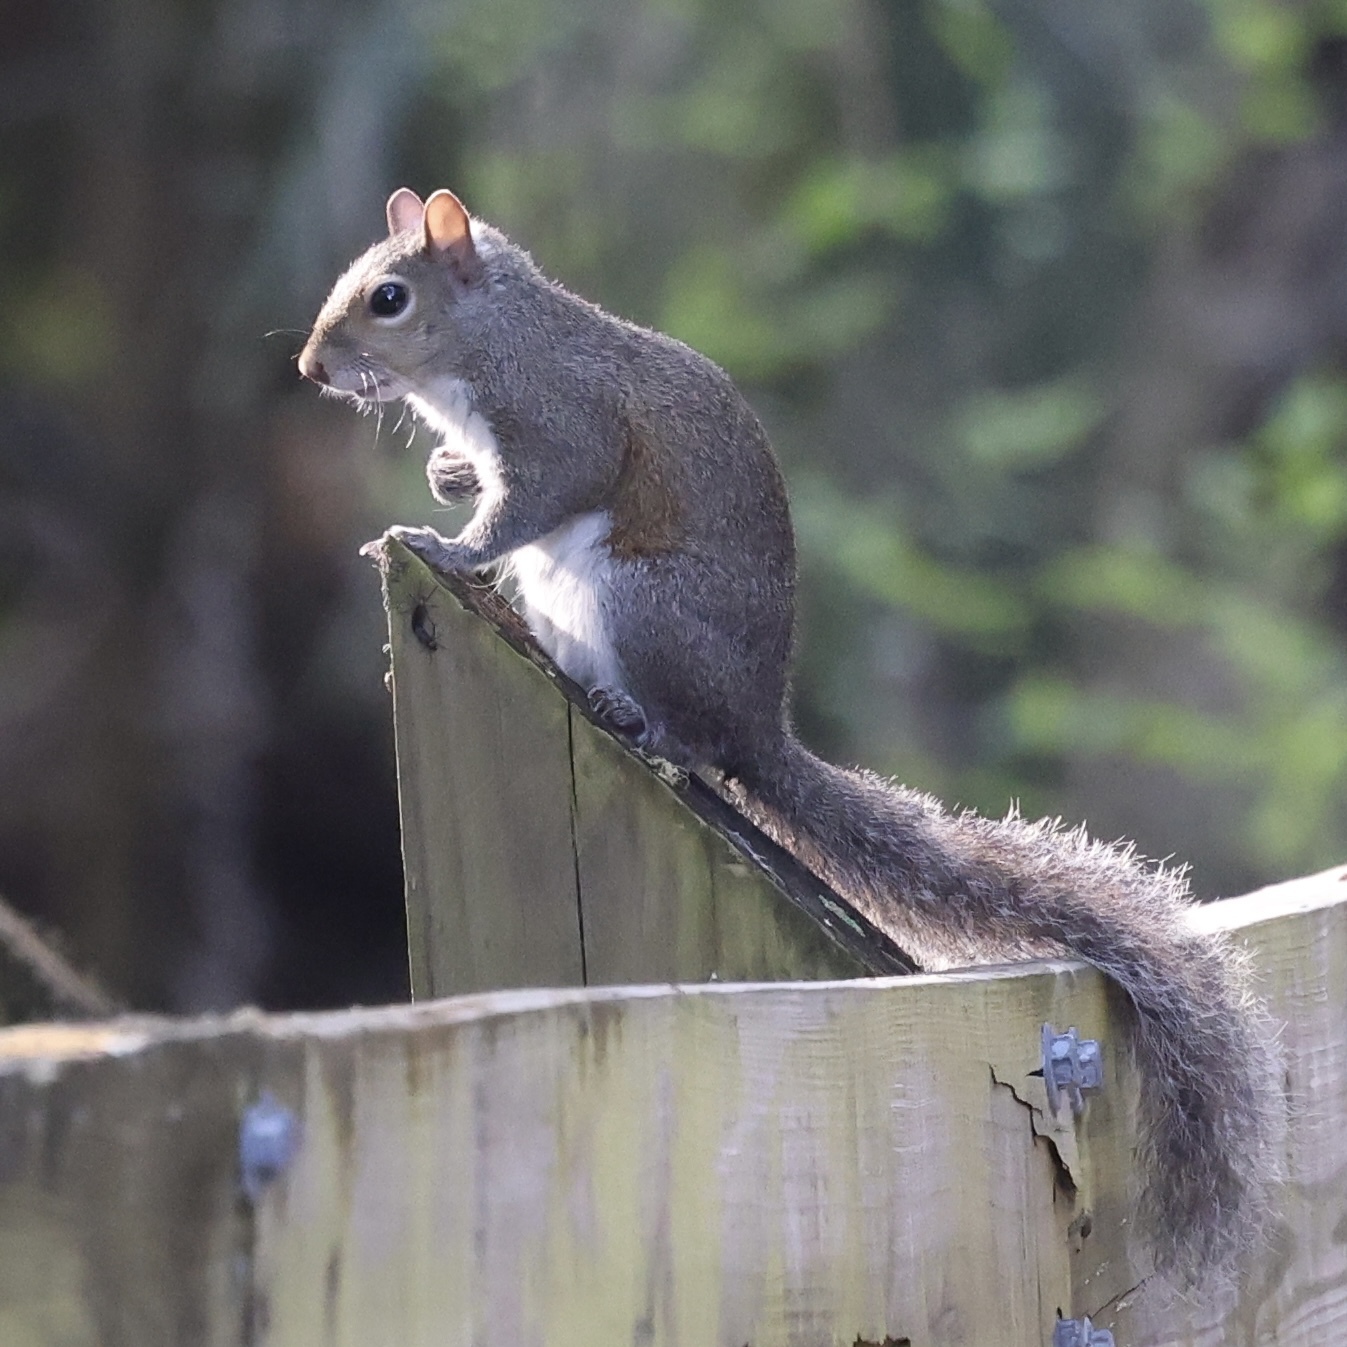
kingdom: Animalia
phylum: Chordata
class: Mammalia
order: Rodentia
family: Sciuridae
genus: Sciurus
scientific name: Sciurus carolinensis
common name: Eastern gray squirrel
